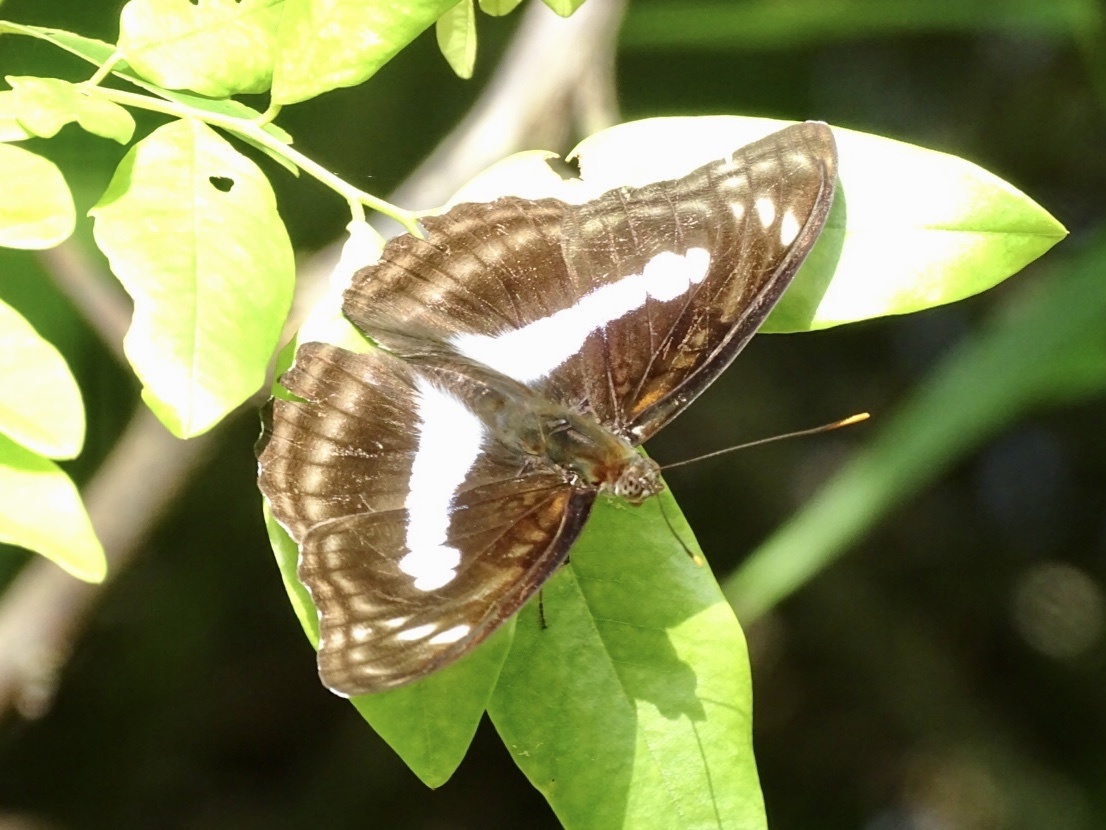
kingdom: Animalia
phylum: Arthropoda
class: Insecta
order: Lepidoptera
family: Nymphalidae
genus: Parathyma
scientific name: Parathyma selenophora
